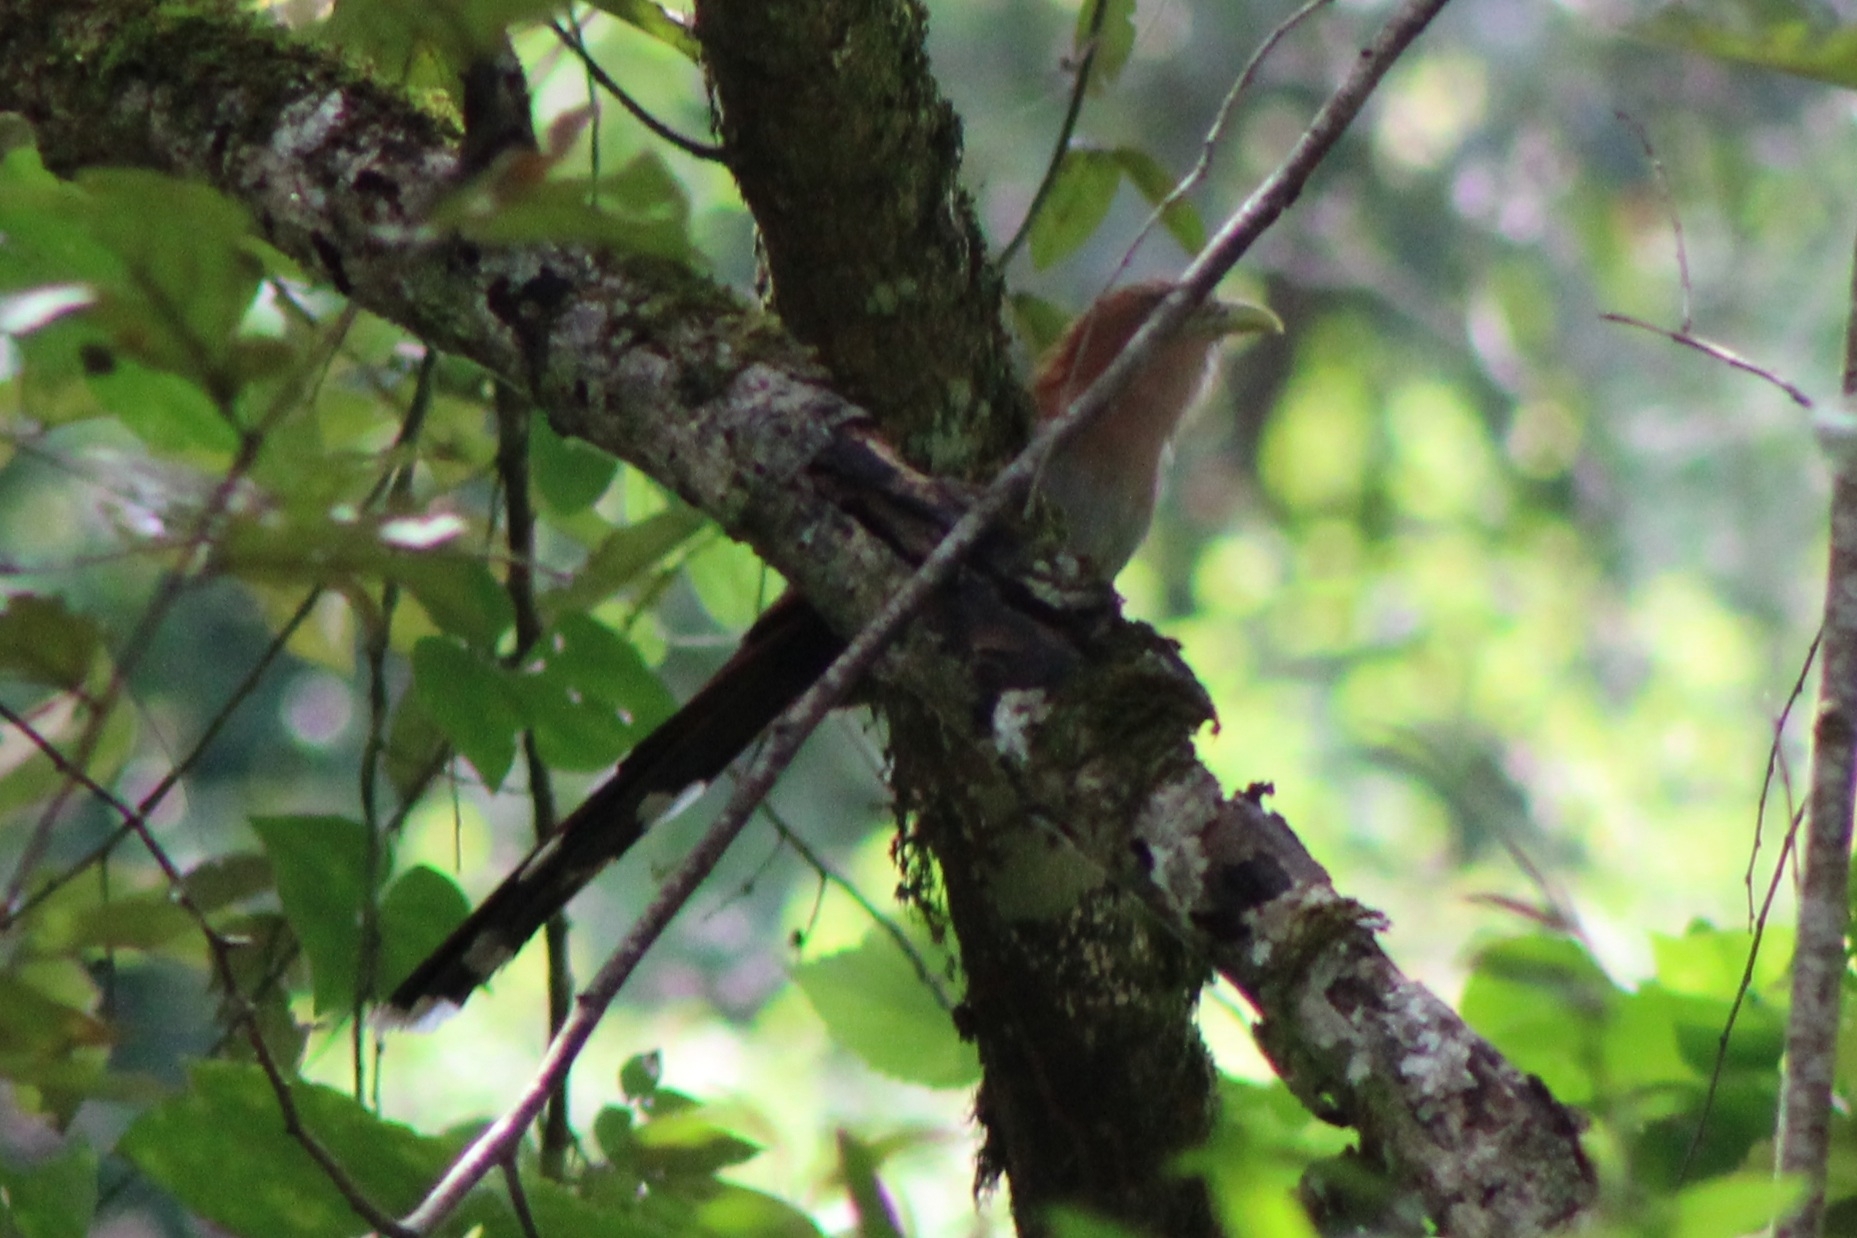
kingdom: Animalia
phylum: Chordata
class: Aves
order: Cuculiformes
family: Cuculidae
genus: Piaya
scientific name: Piaya cayana
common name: Squirrel cuckoo
